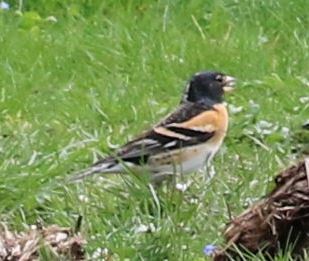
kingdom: Animalia
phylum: Chordata
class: Aves
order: Passeriformes
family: Fringillidae
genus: Fringilla
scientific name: Fringilla montifringilla
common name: Brambling
